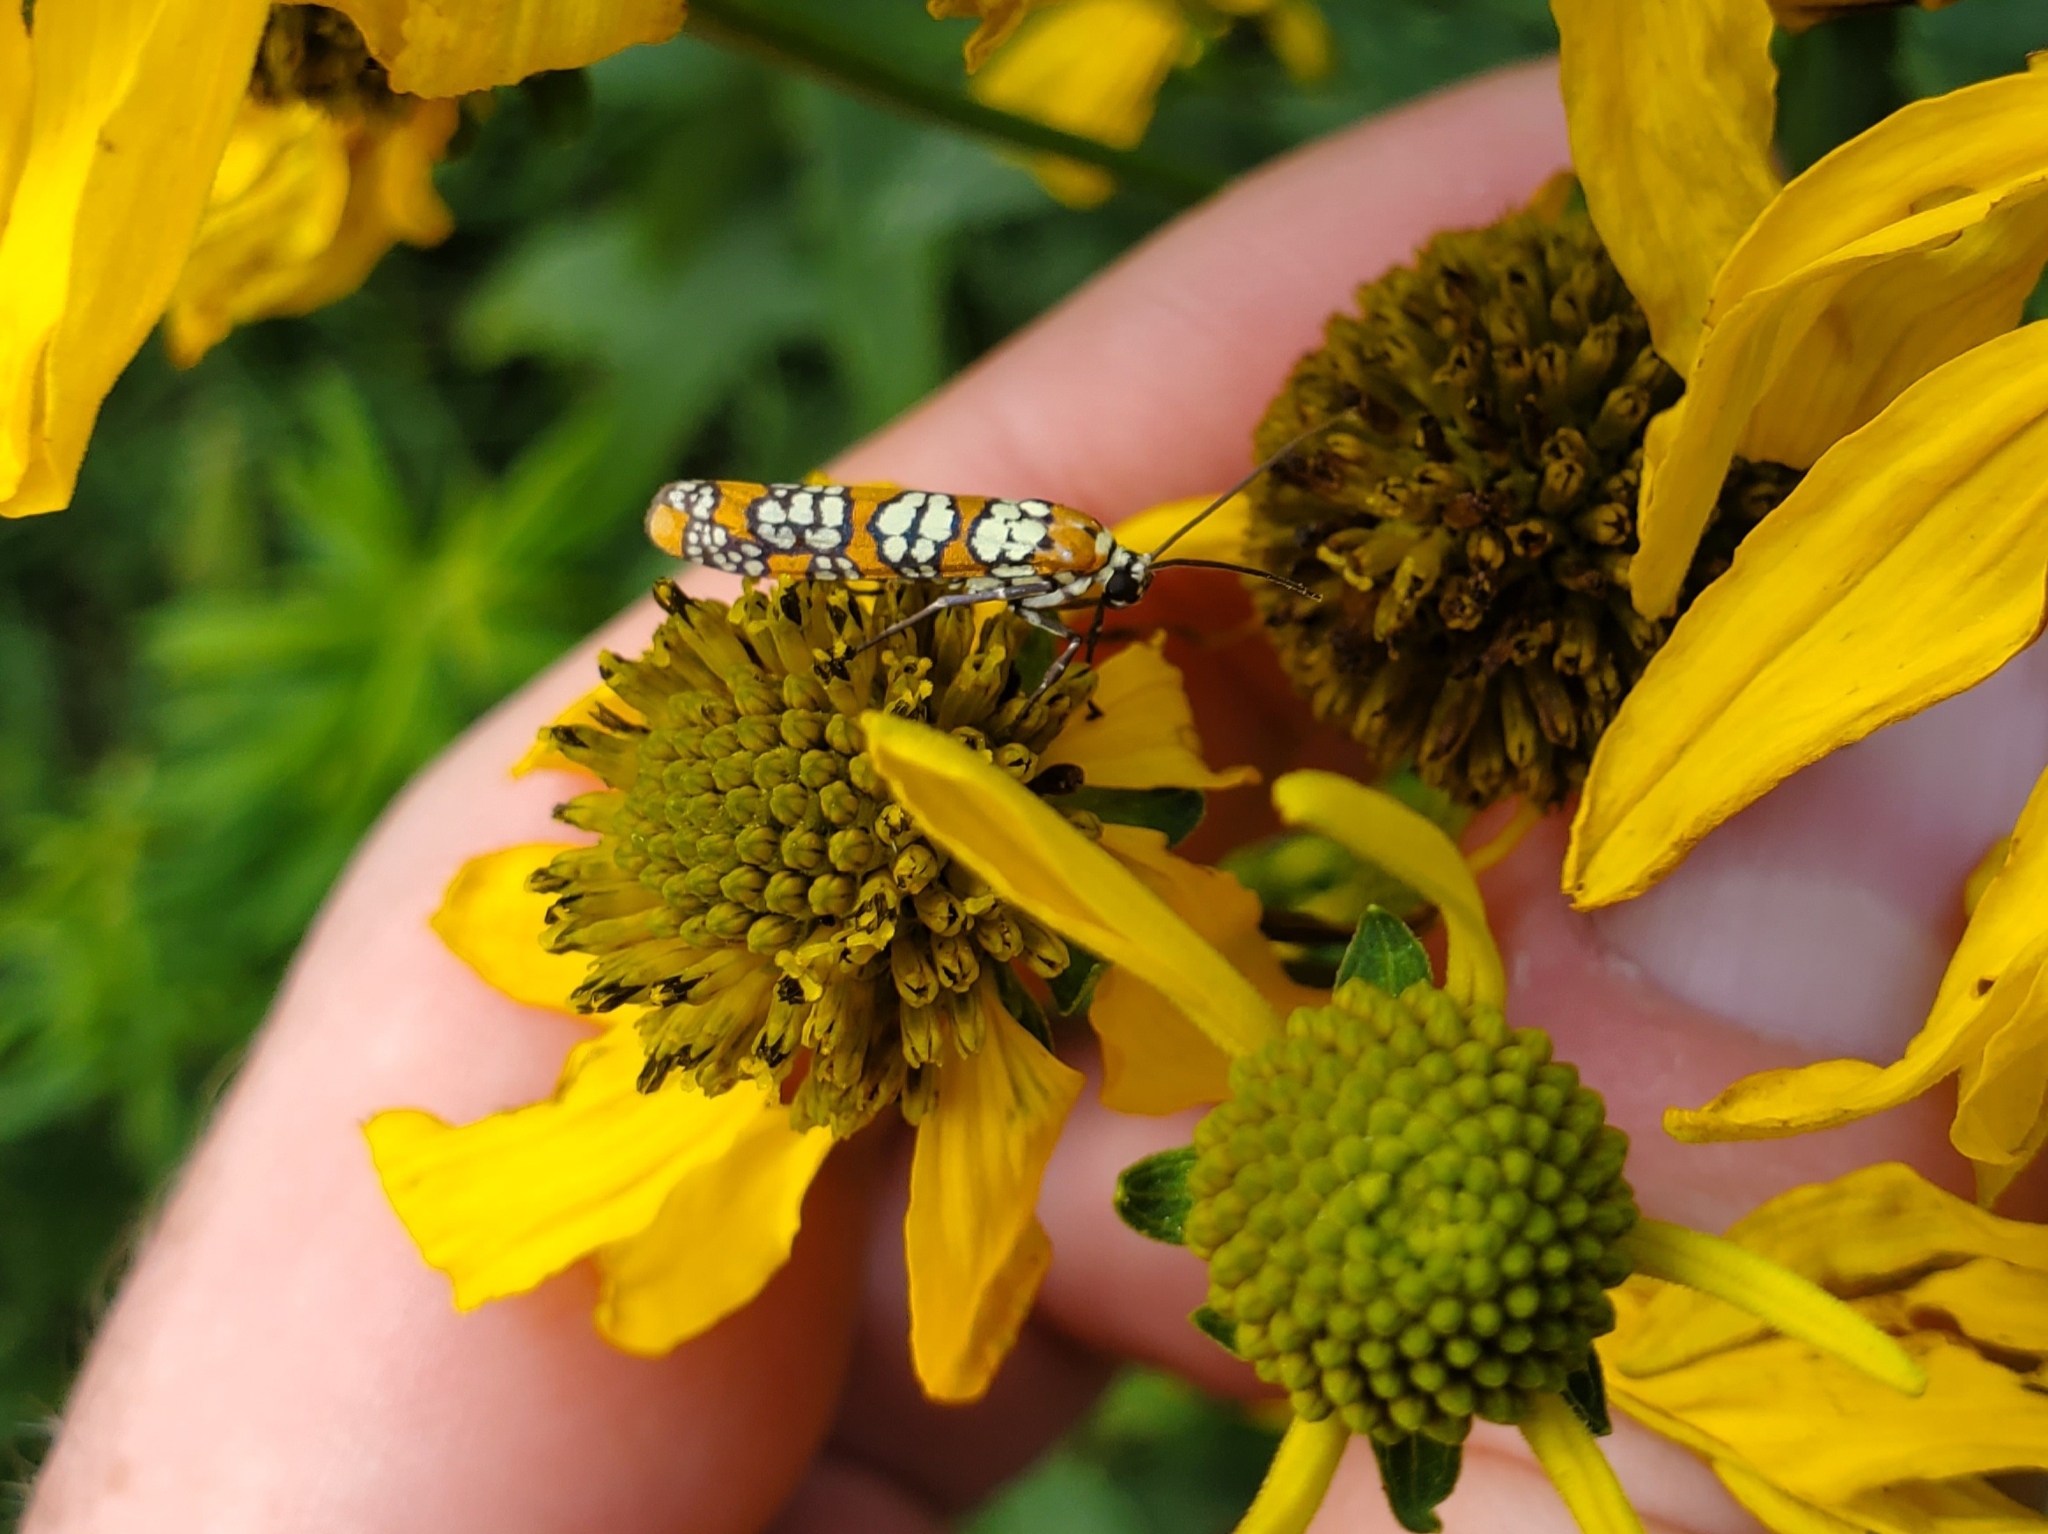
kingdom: Animalia
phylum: Arthropoda
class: Insecta
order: Lepidoptera
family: Attevidae
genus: Atteva
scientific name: Atteva punctella
